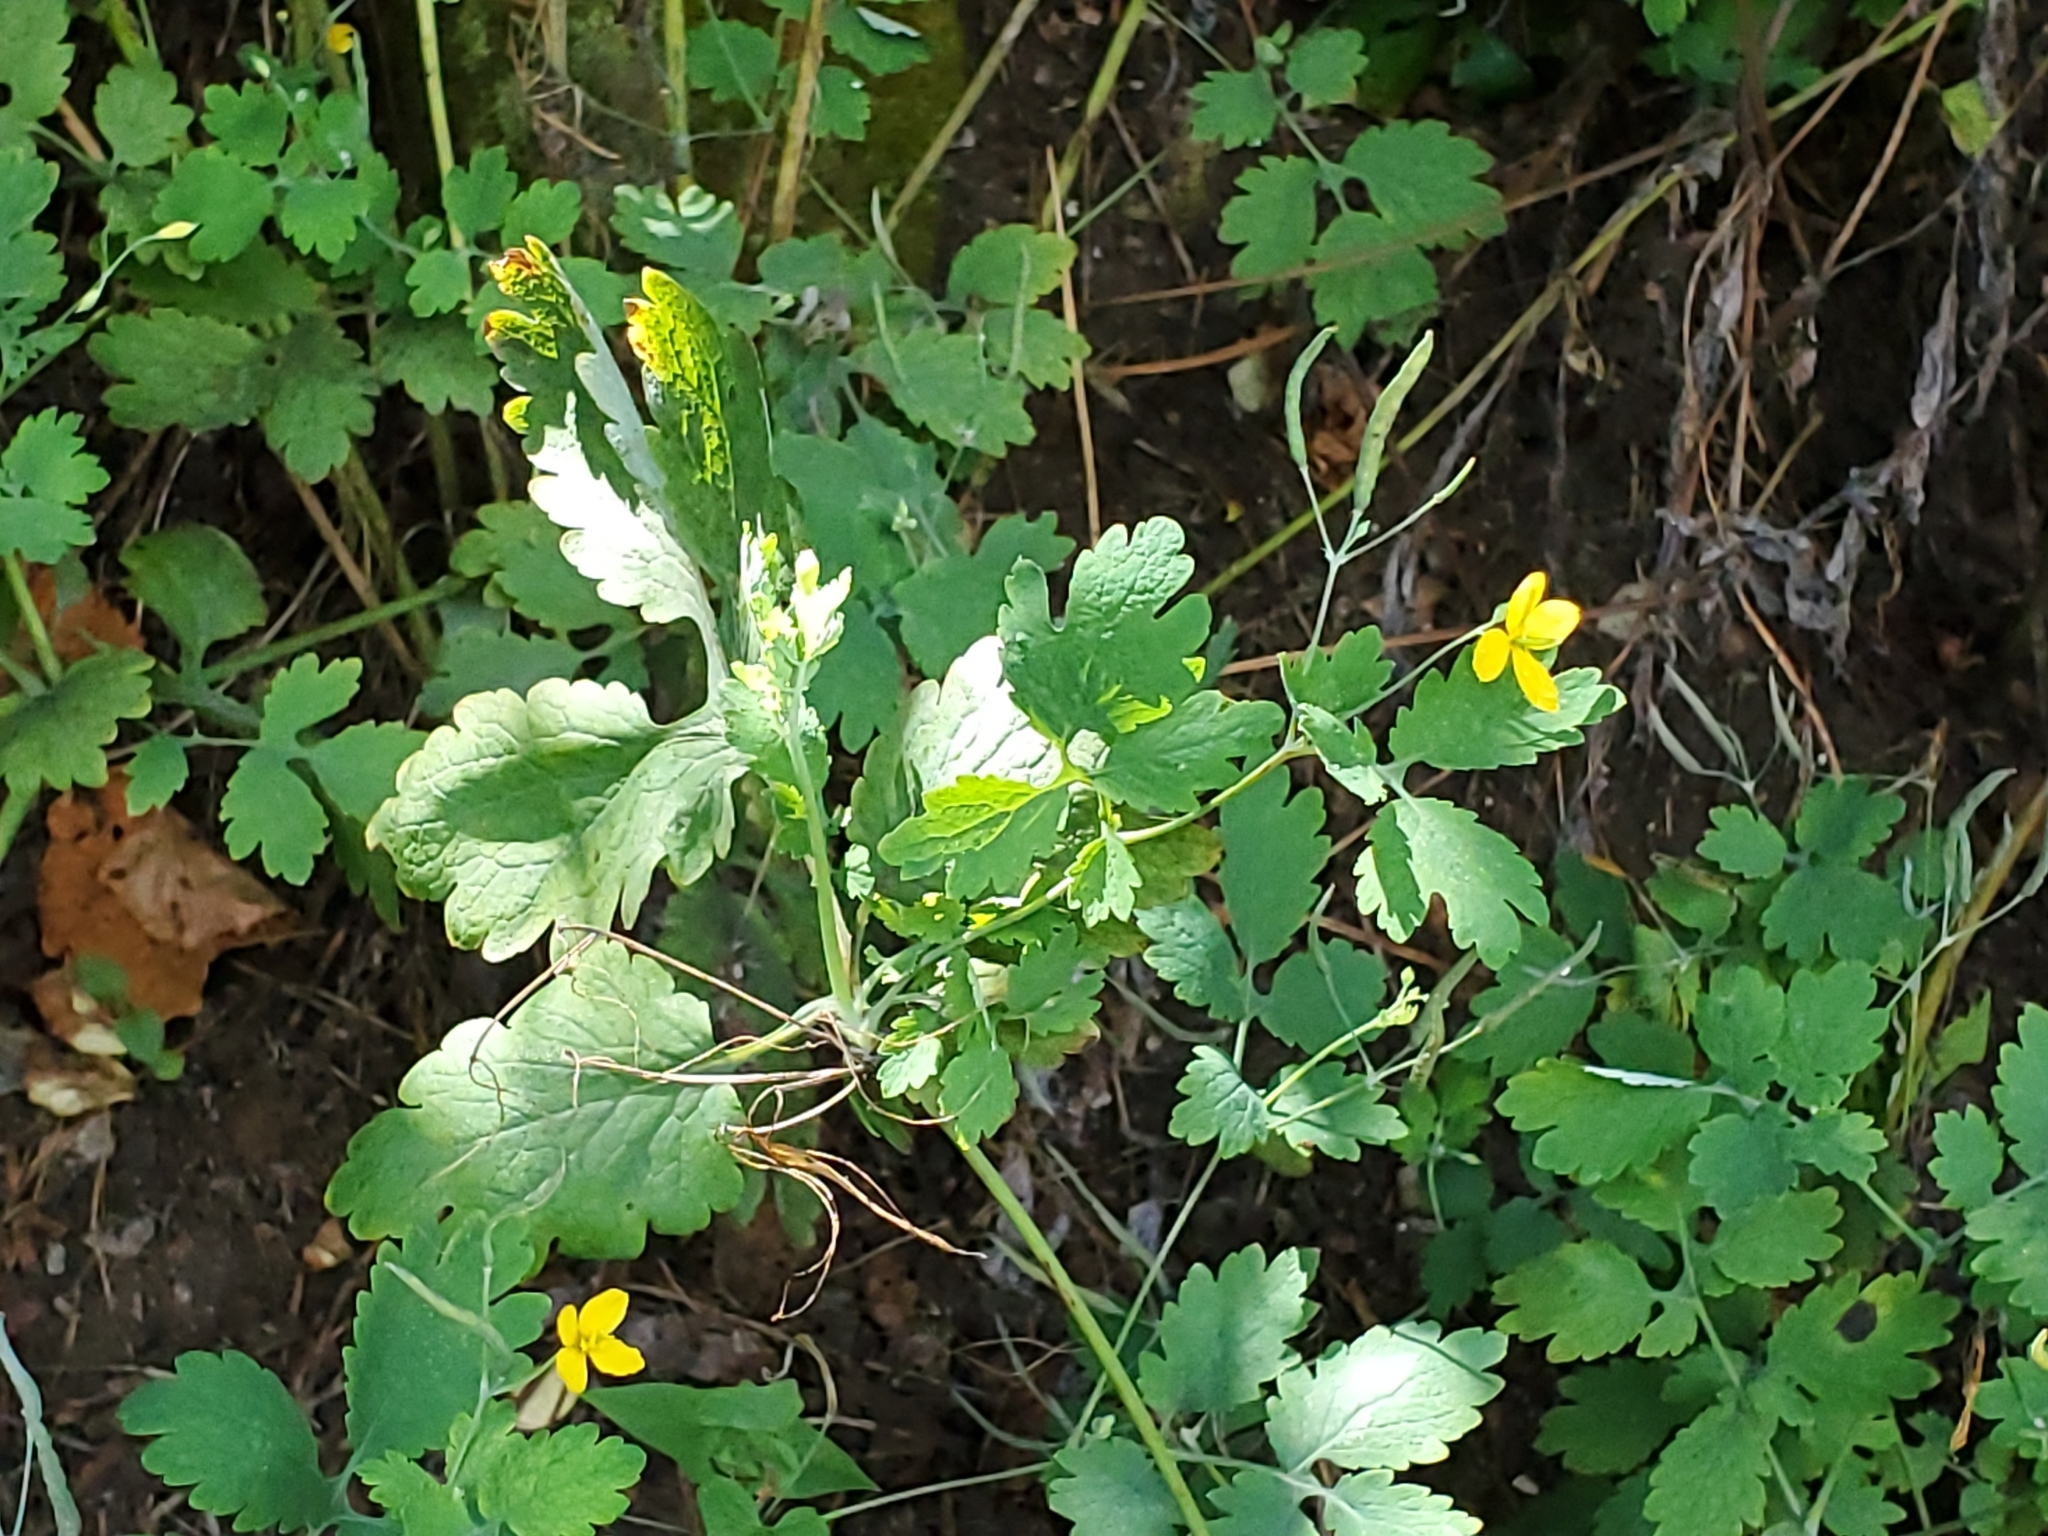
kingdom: Plantae
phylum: Tracheophyta
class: Magnoliopsida
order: Ranunculales
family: Papaveraceae
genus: Chelidonium
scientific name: Chelidonium majus
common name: Greater celandine
